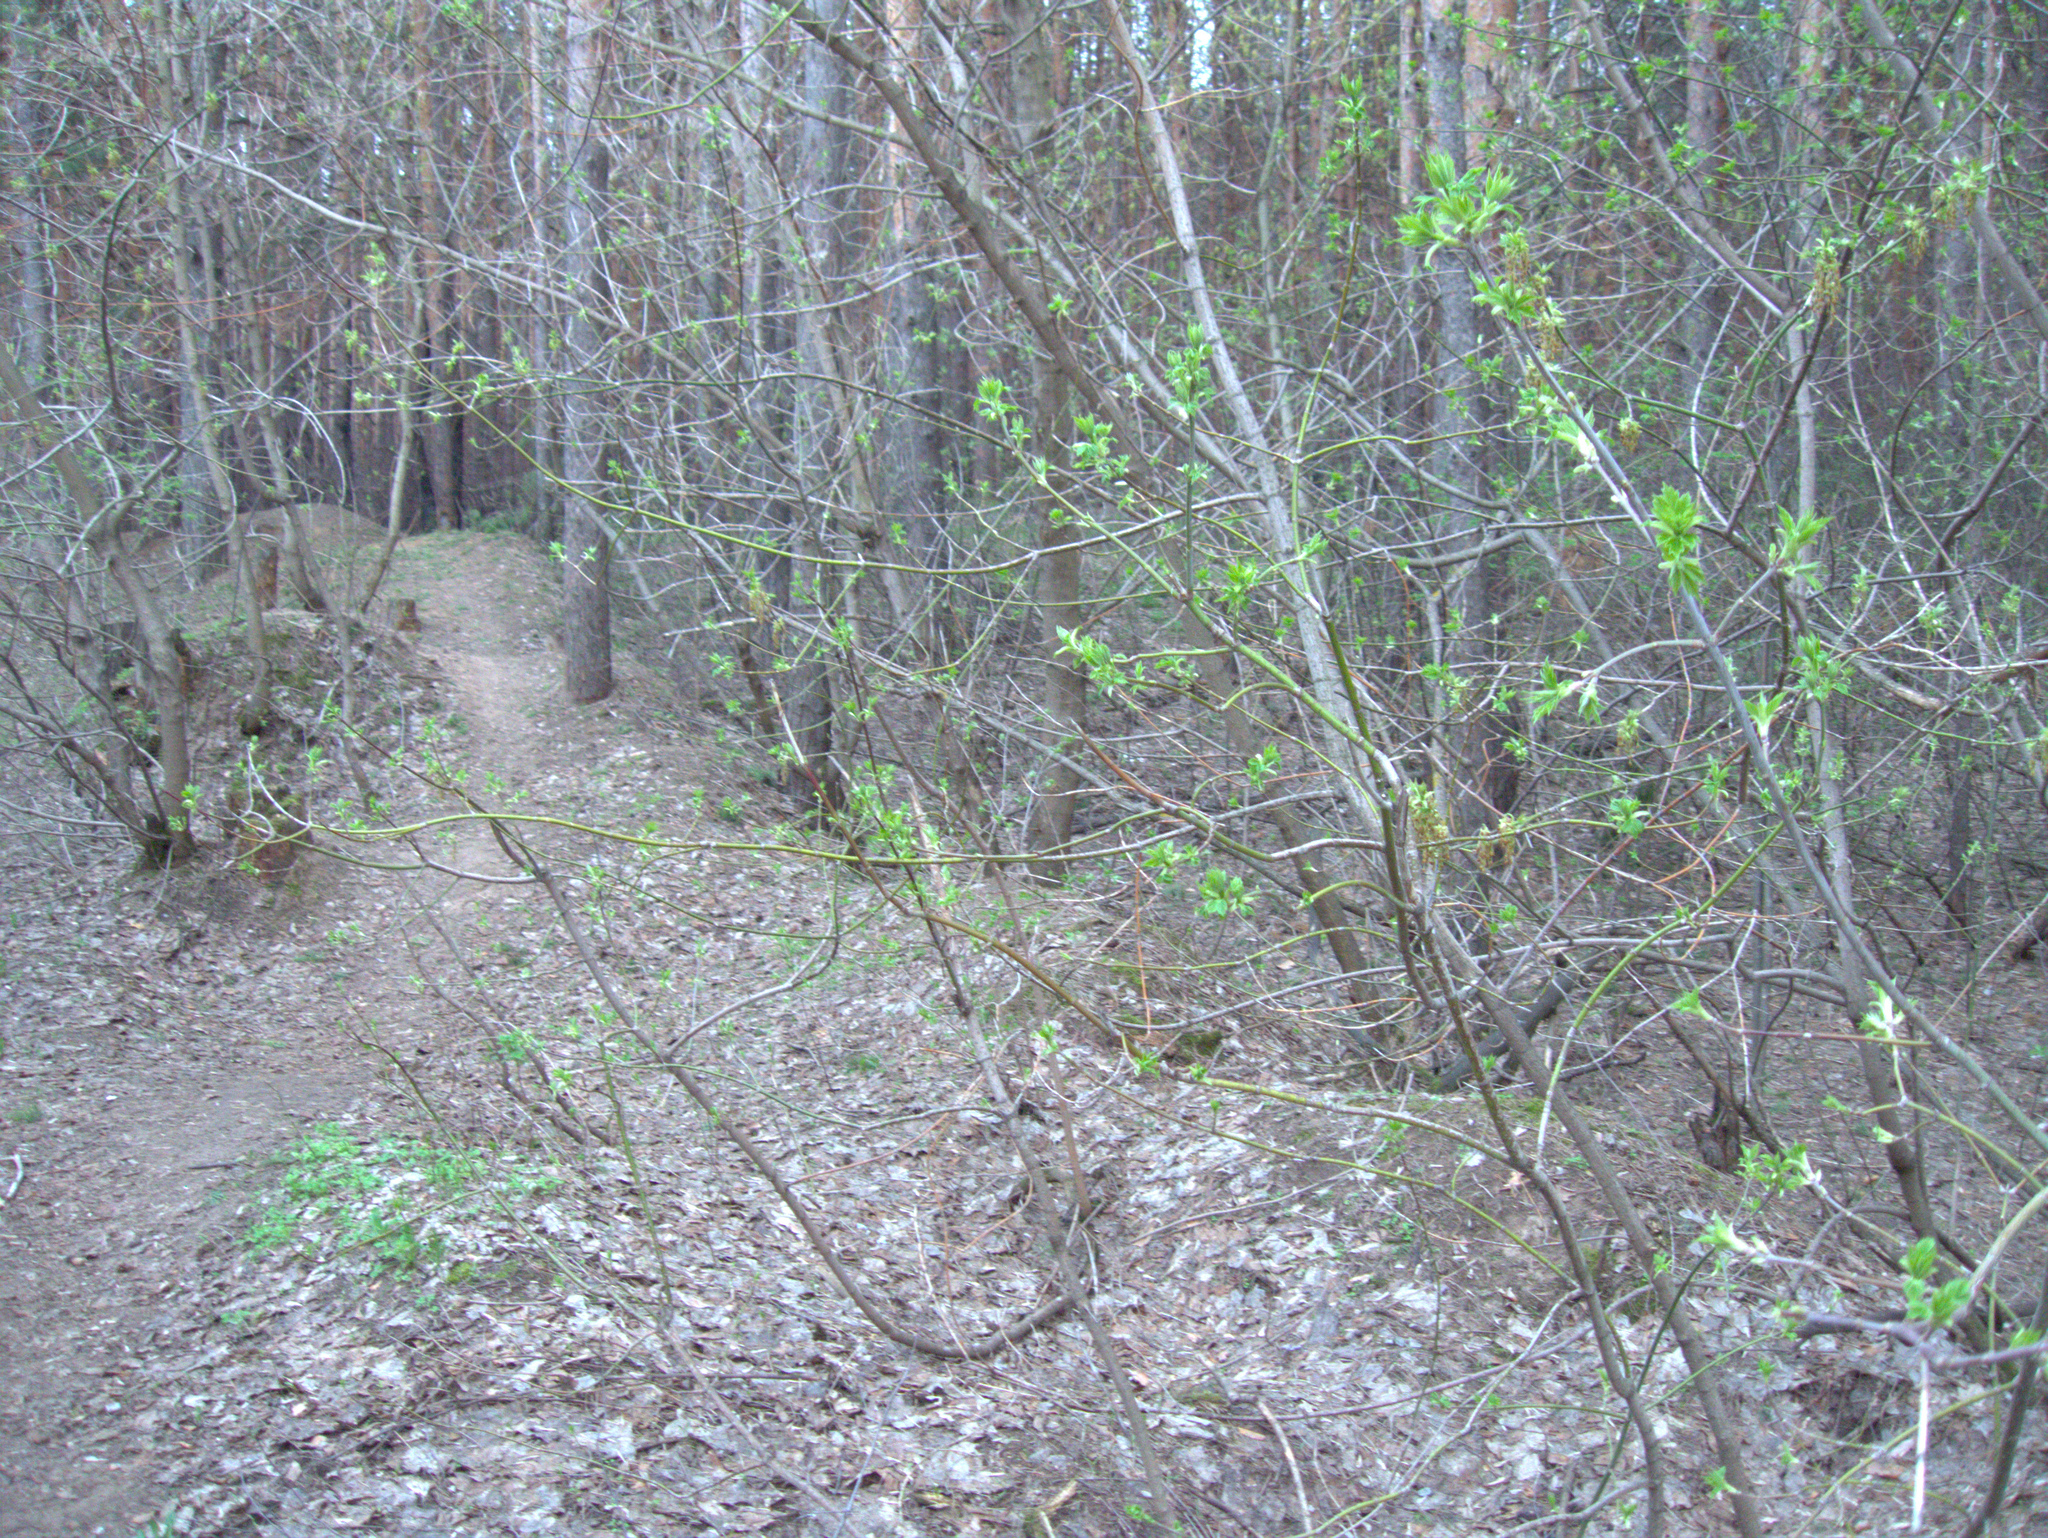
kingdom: Plantae
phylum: Tracheophyta
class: Magnoliopsida
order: Sapindales
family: Sapindaceae
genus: Acer
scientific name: Acer negundo
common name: Ashleaf maple
